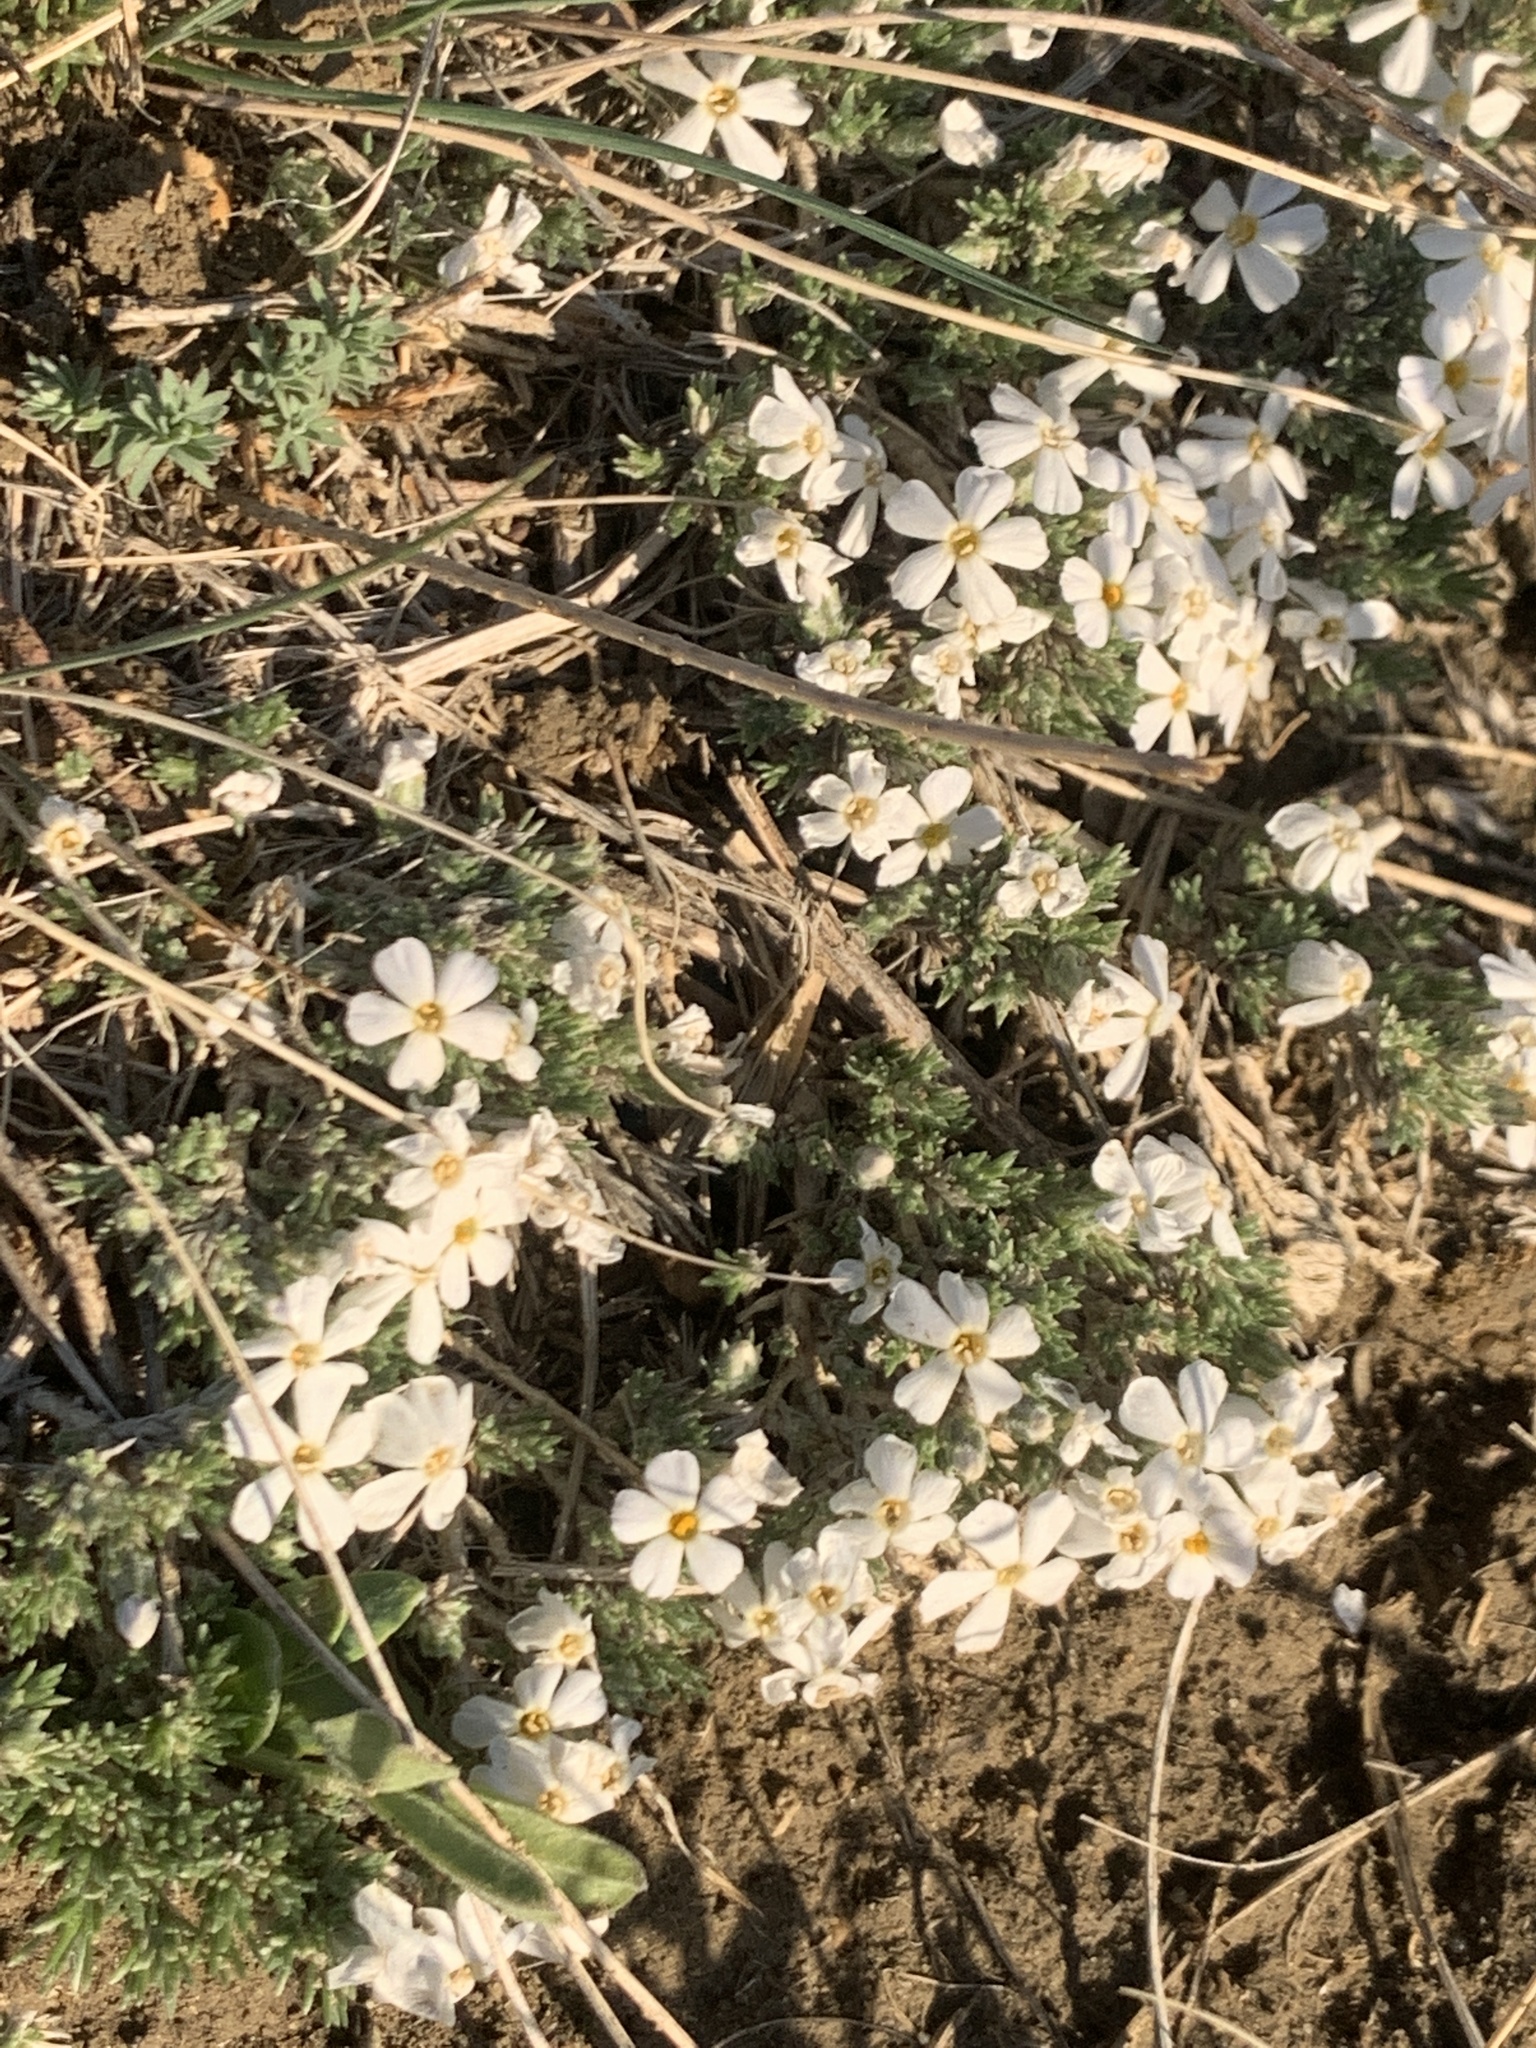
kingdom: Plantae
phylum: Tracheophyta
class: Magnoliopsida
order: Ericales
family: Polemoniaceae
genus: Phlox
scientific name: Phlox hoodii
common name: Moss phlox
